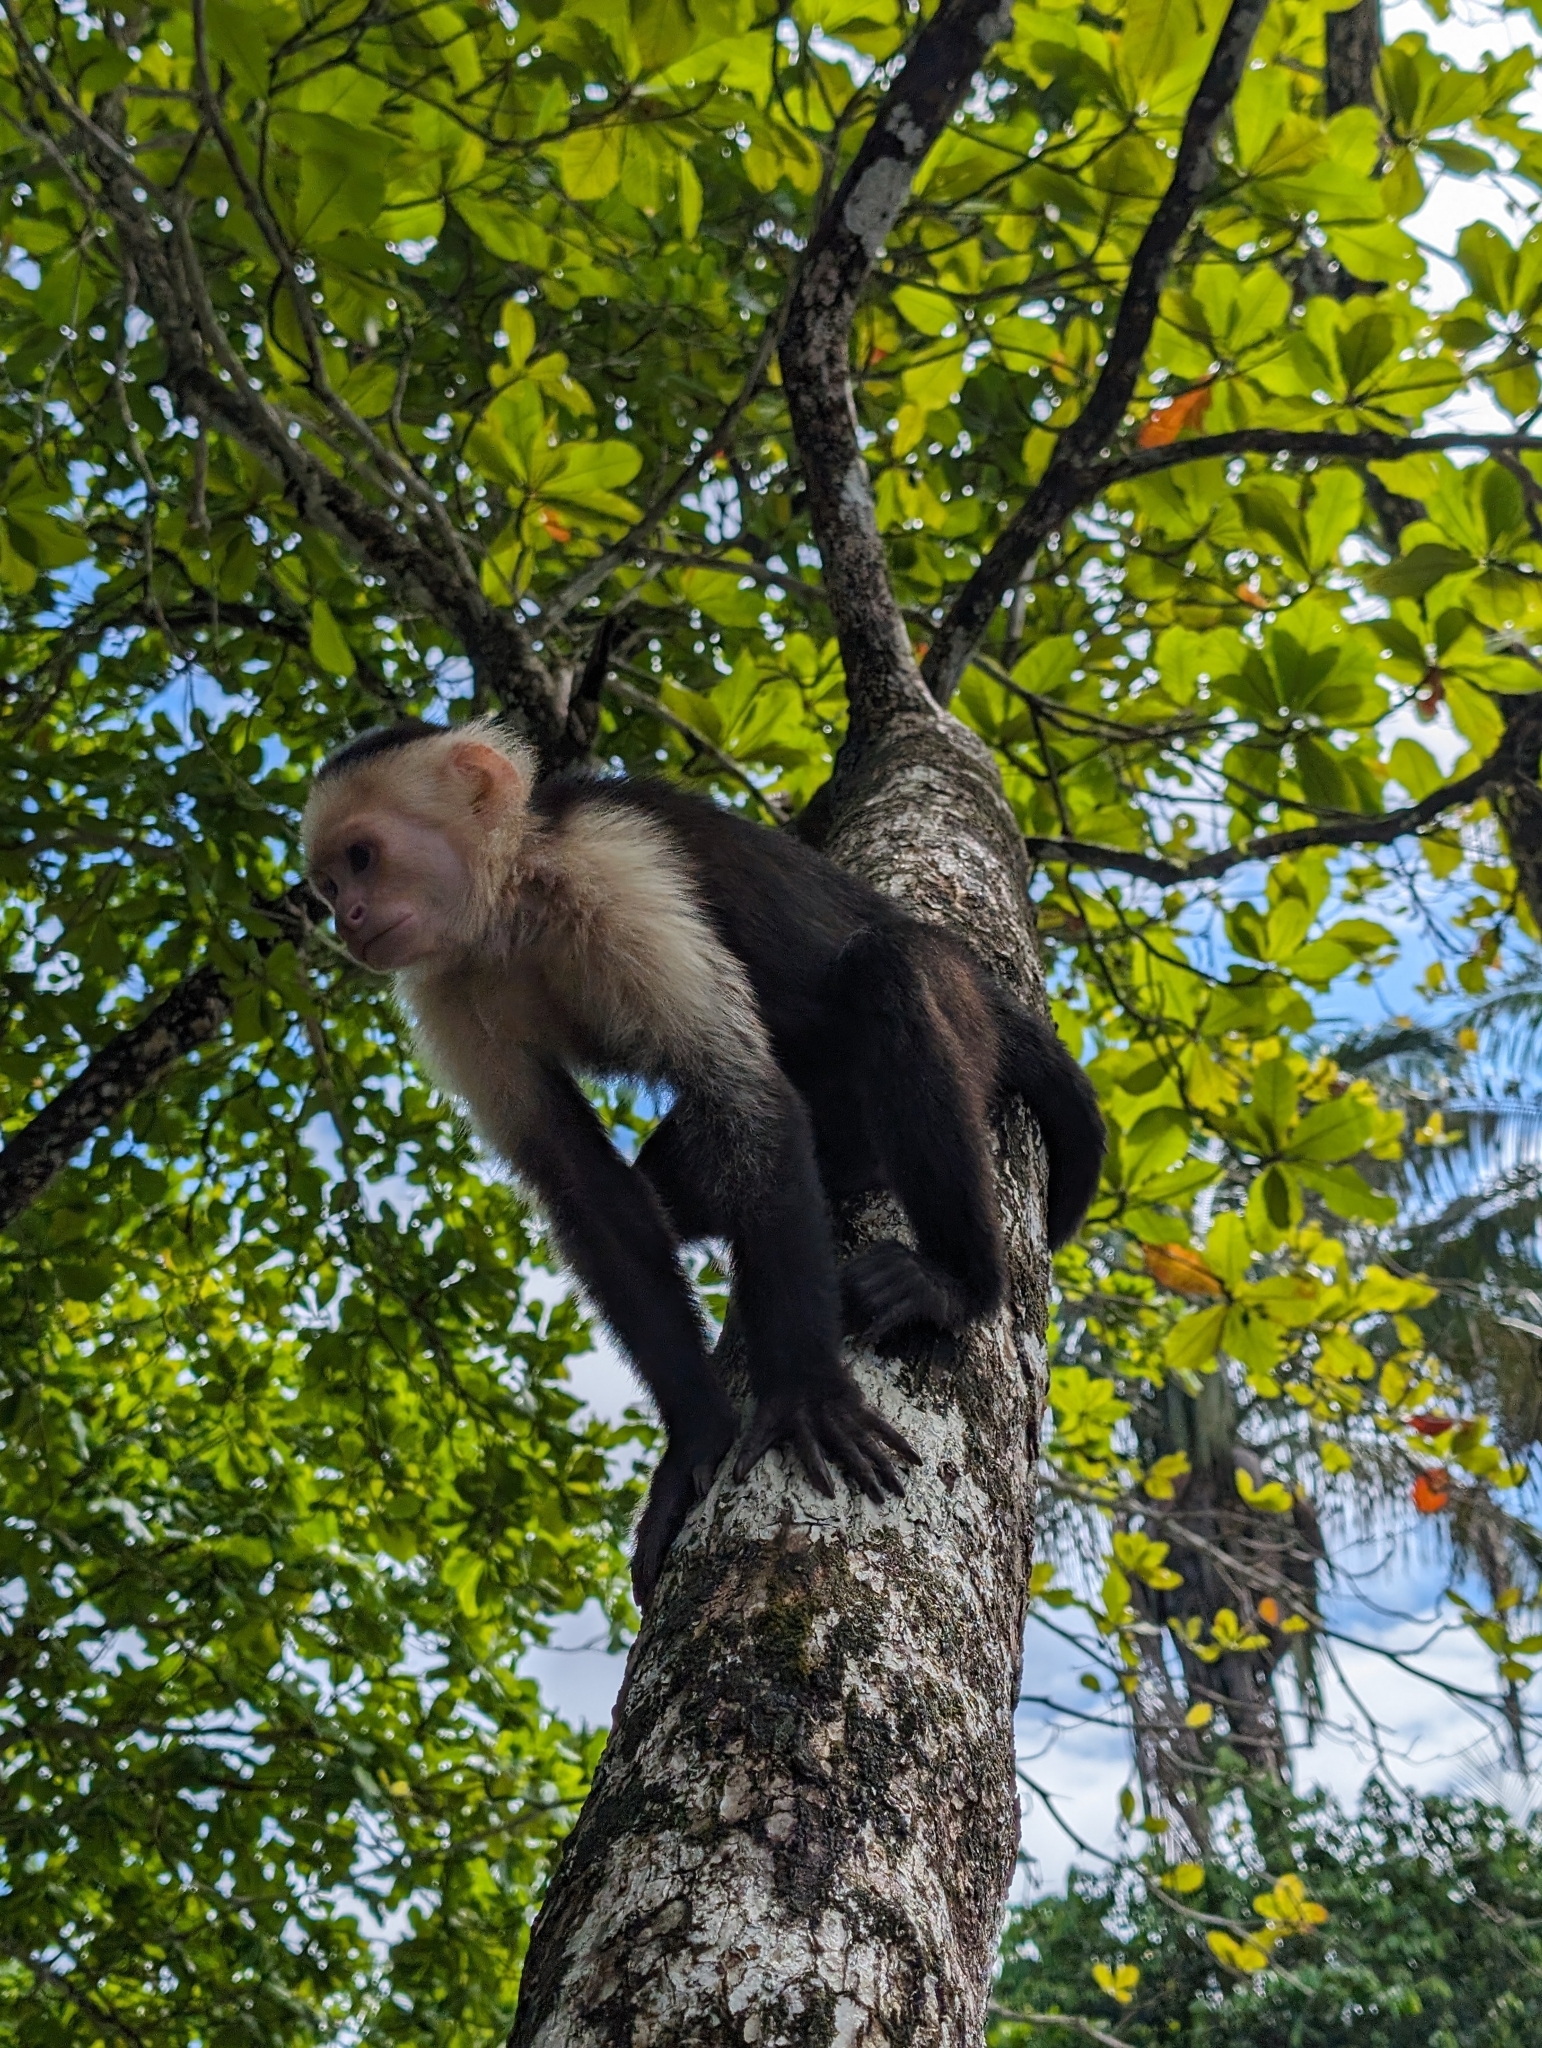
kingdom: Animalia
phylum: Chordata
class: Mammalia
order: Primates
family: Cebidae
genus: Cebus
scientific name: Cebus imitator
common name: Panamanian white-faced capuchin
